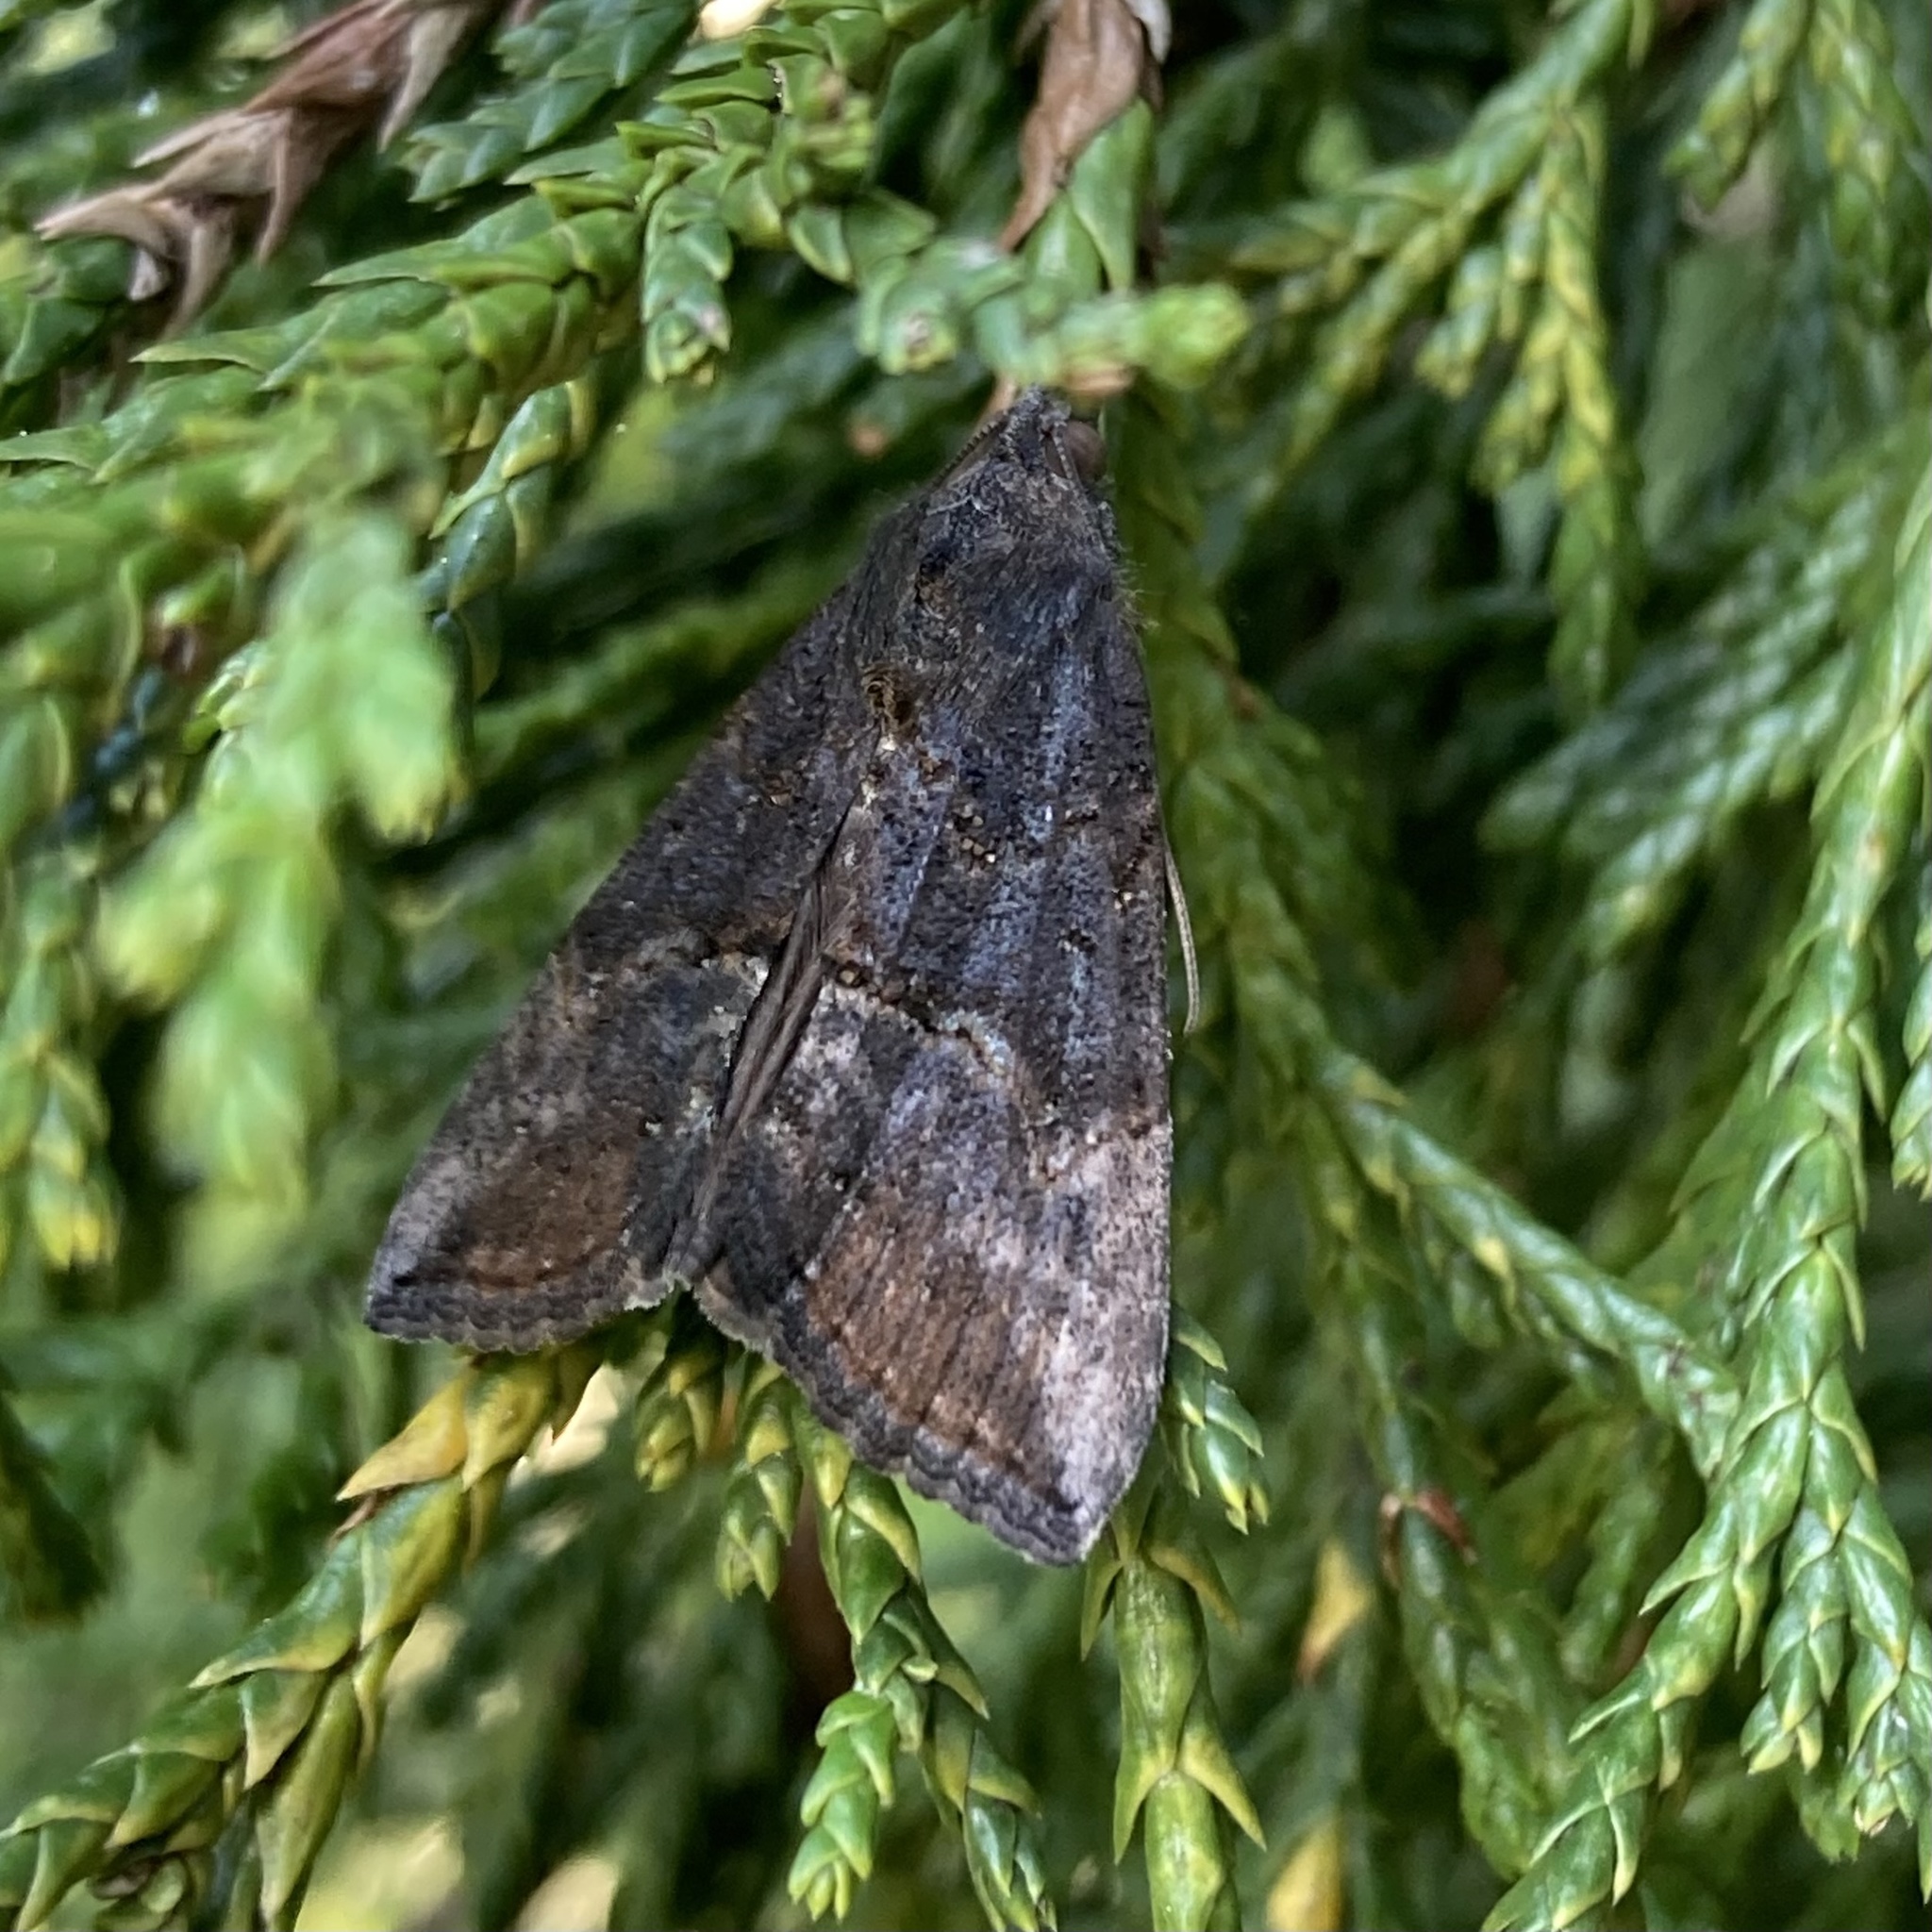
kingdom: Animalia
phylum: Arthropoda
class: Insecta
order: Lepidoptera
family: Erebidae
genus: Hypena
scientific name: Hypena scabra
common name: Green cloverworm
